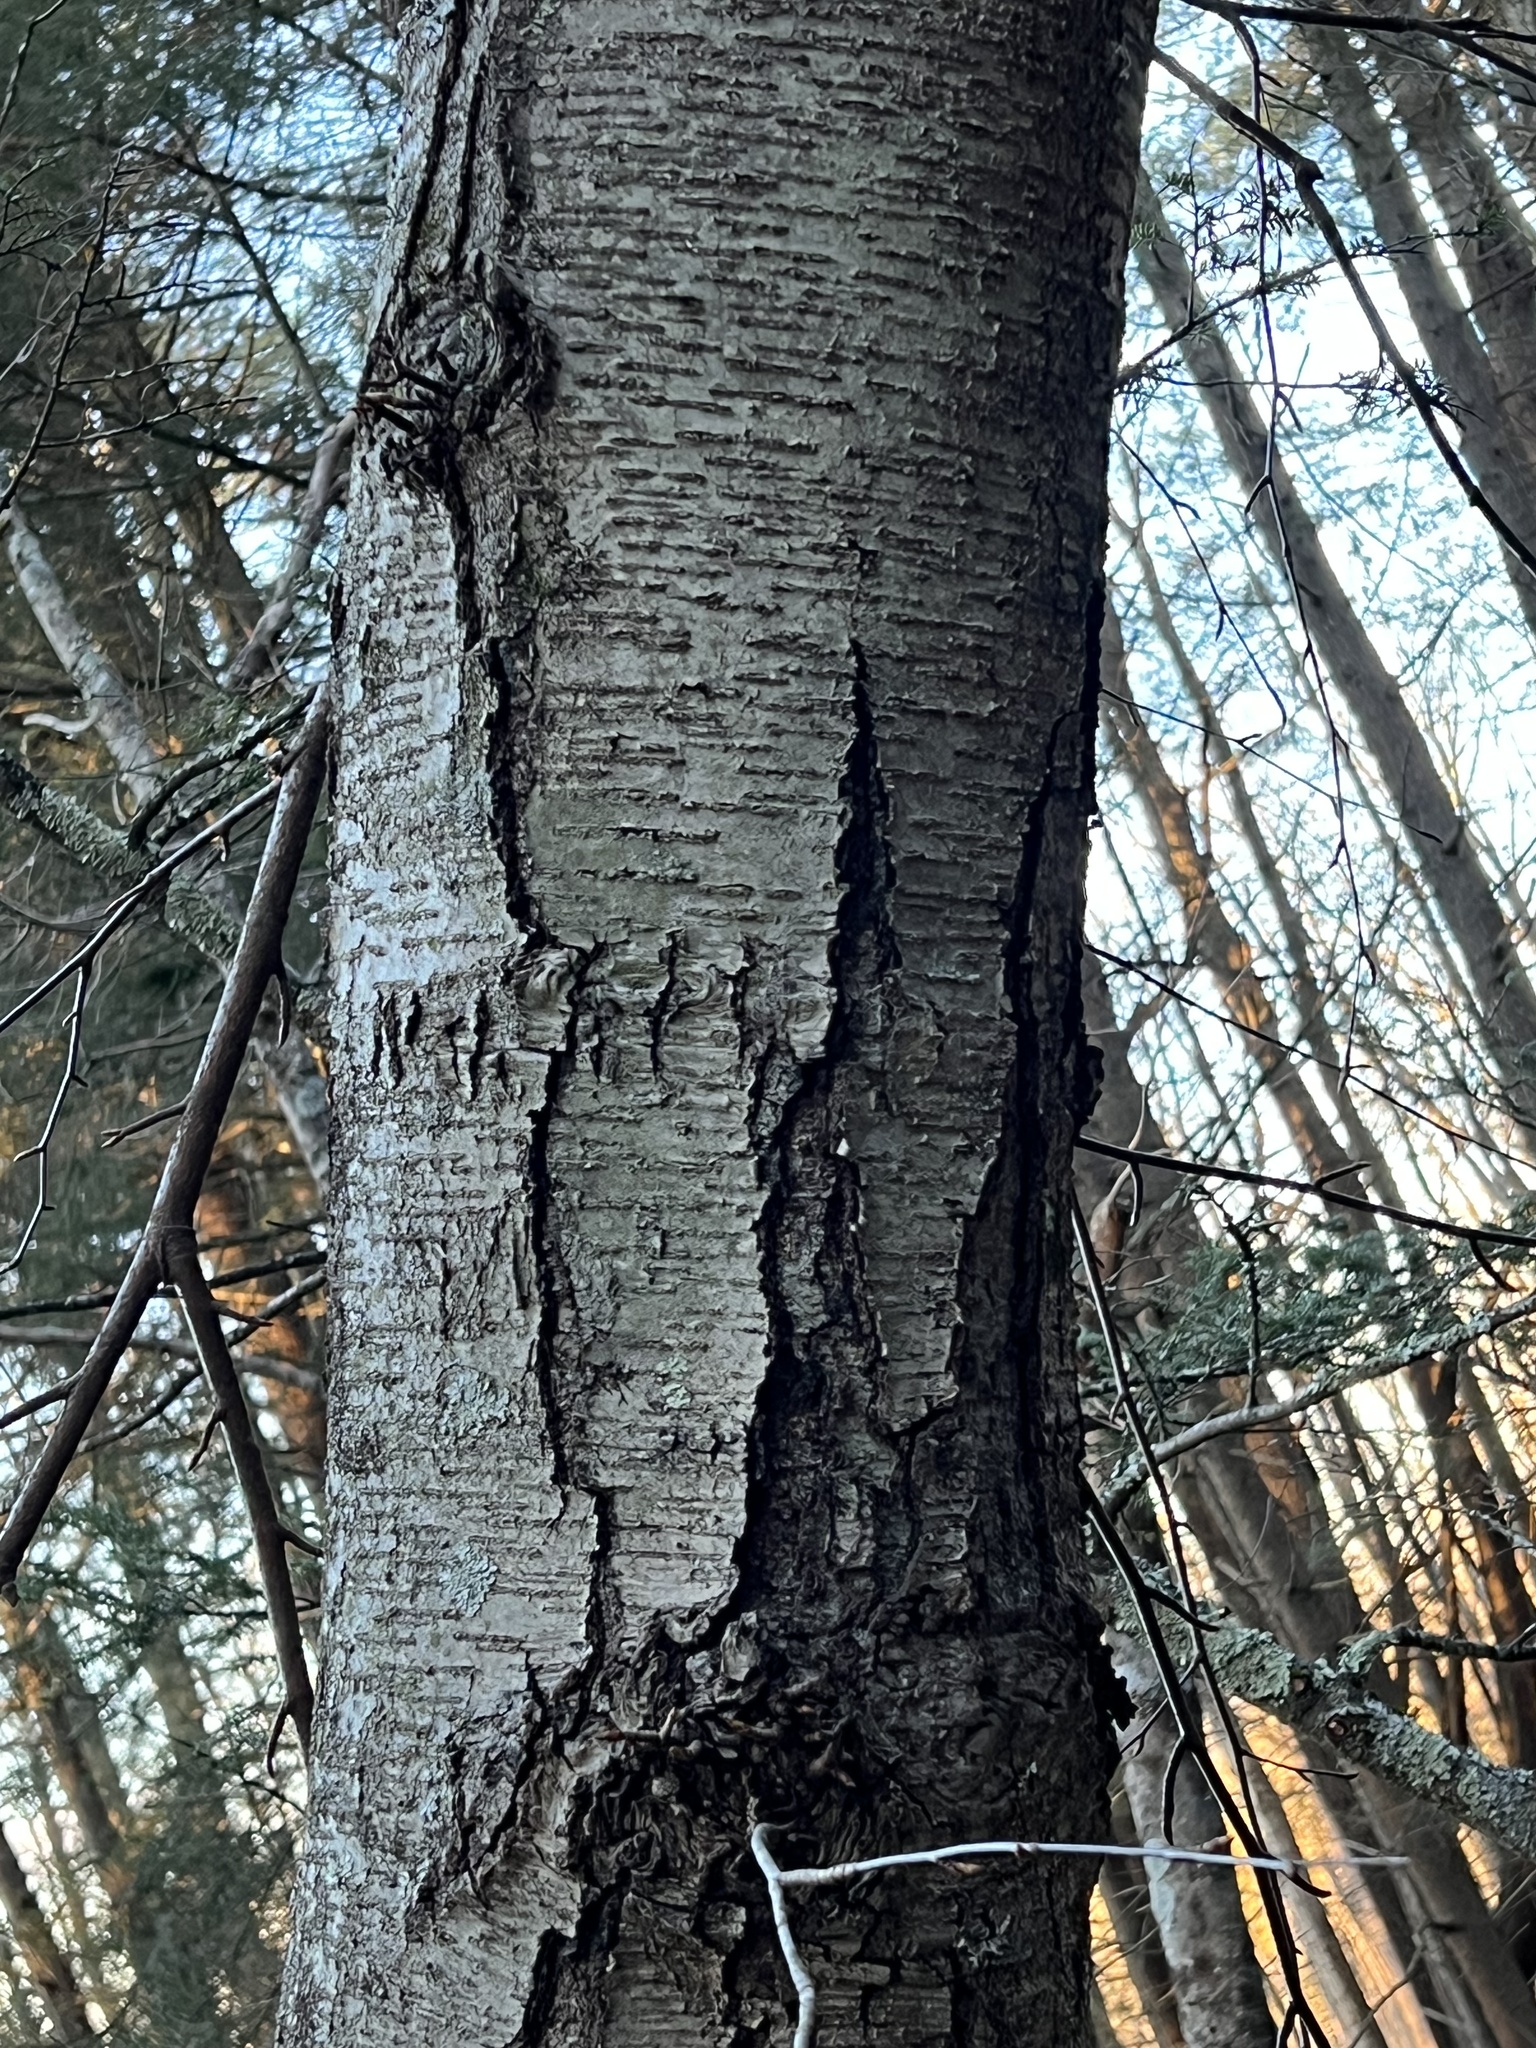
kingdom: Plantae
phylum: Tracheophyta
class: Magnoliopsida
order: Fagales
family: Betulaceae
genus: Betula
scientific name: Betula lenta
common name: Black birch
